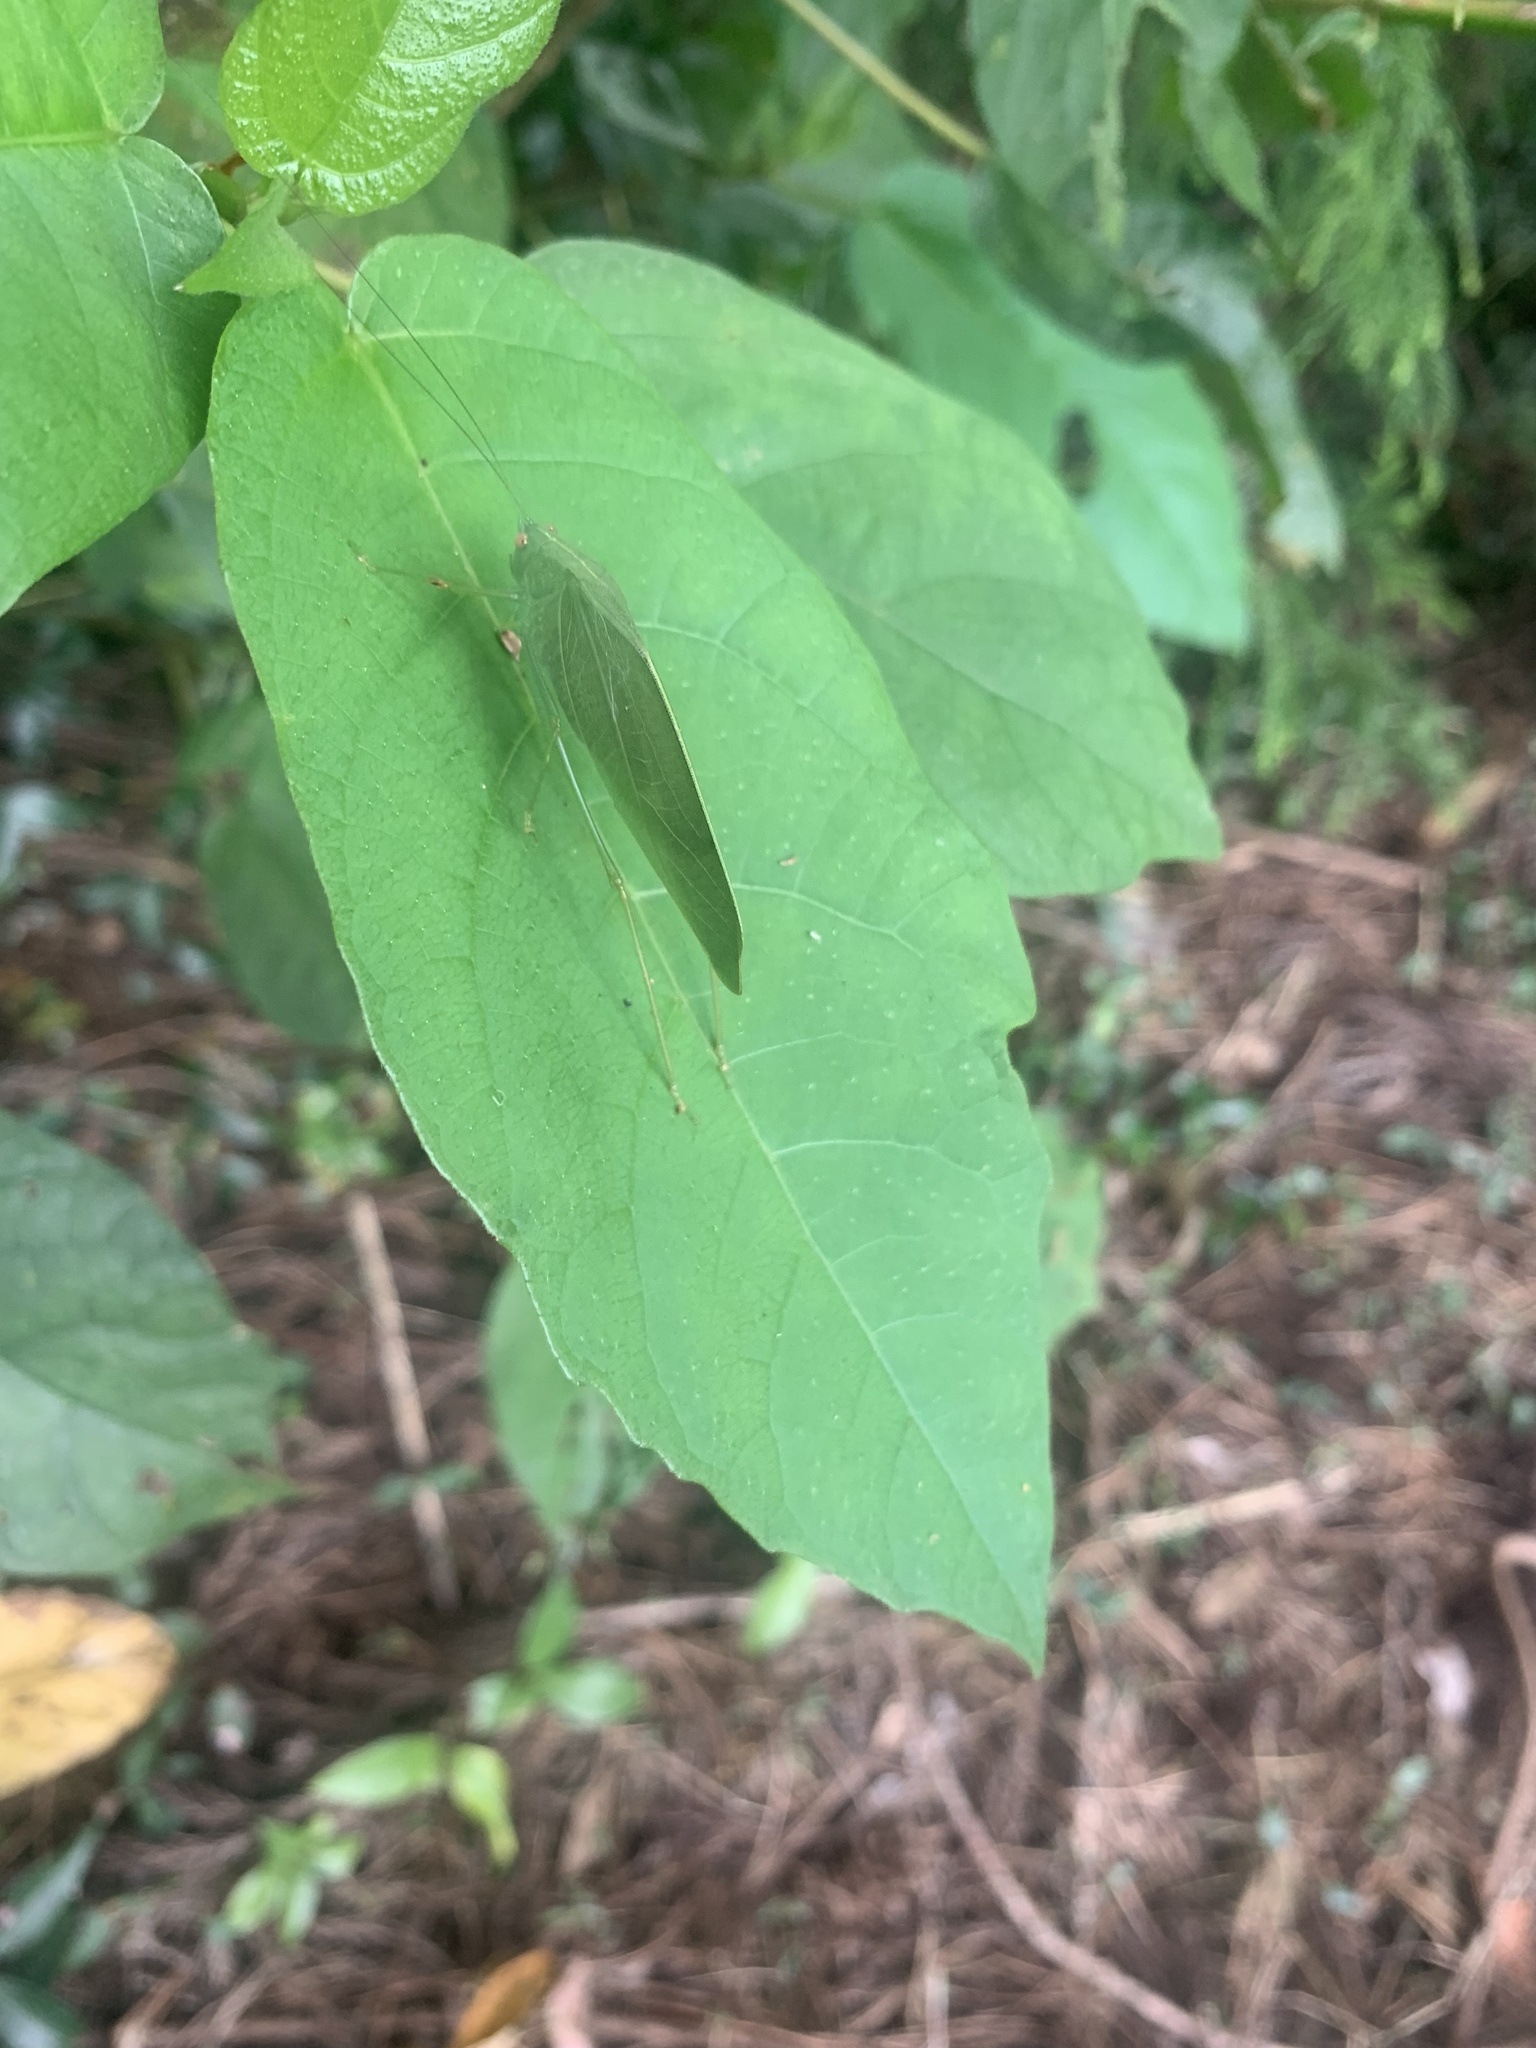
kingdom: Animalia
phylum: Arthropoda
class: Insecta
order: Orthoptera
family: Tettigoniidae
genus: Phaulula
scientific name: Phaulula macilenta
